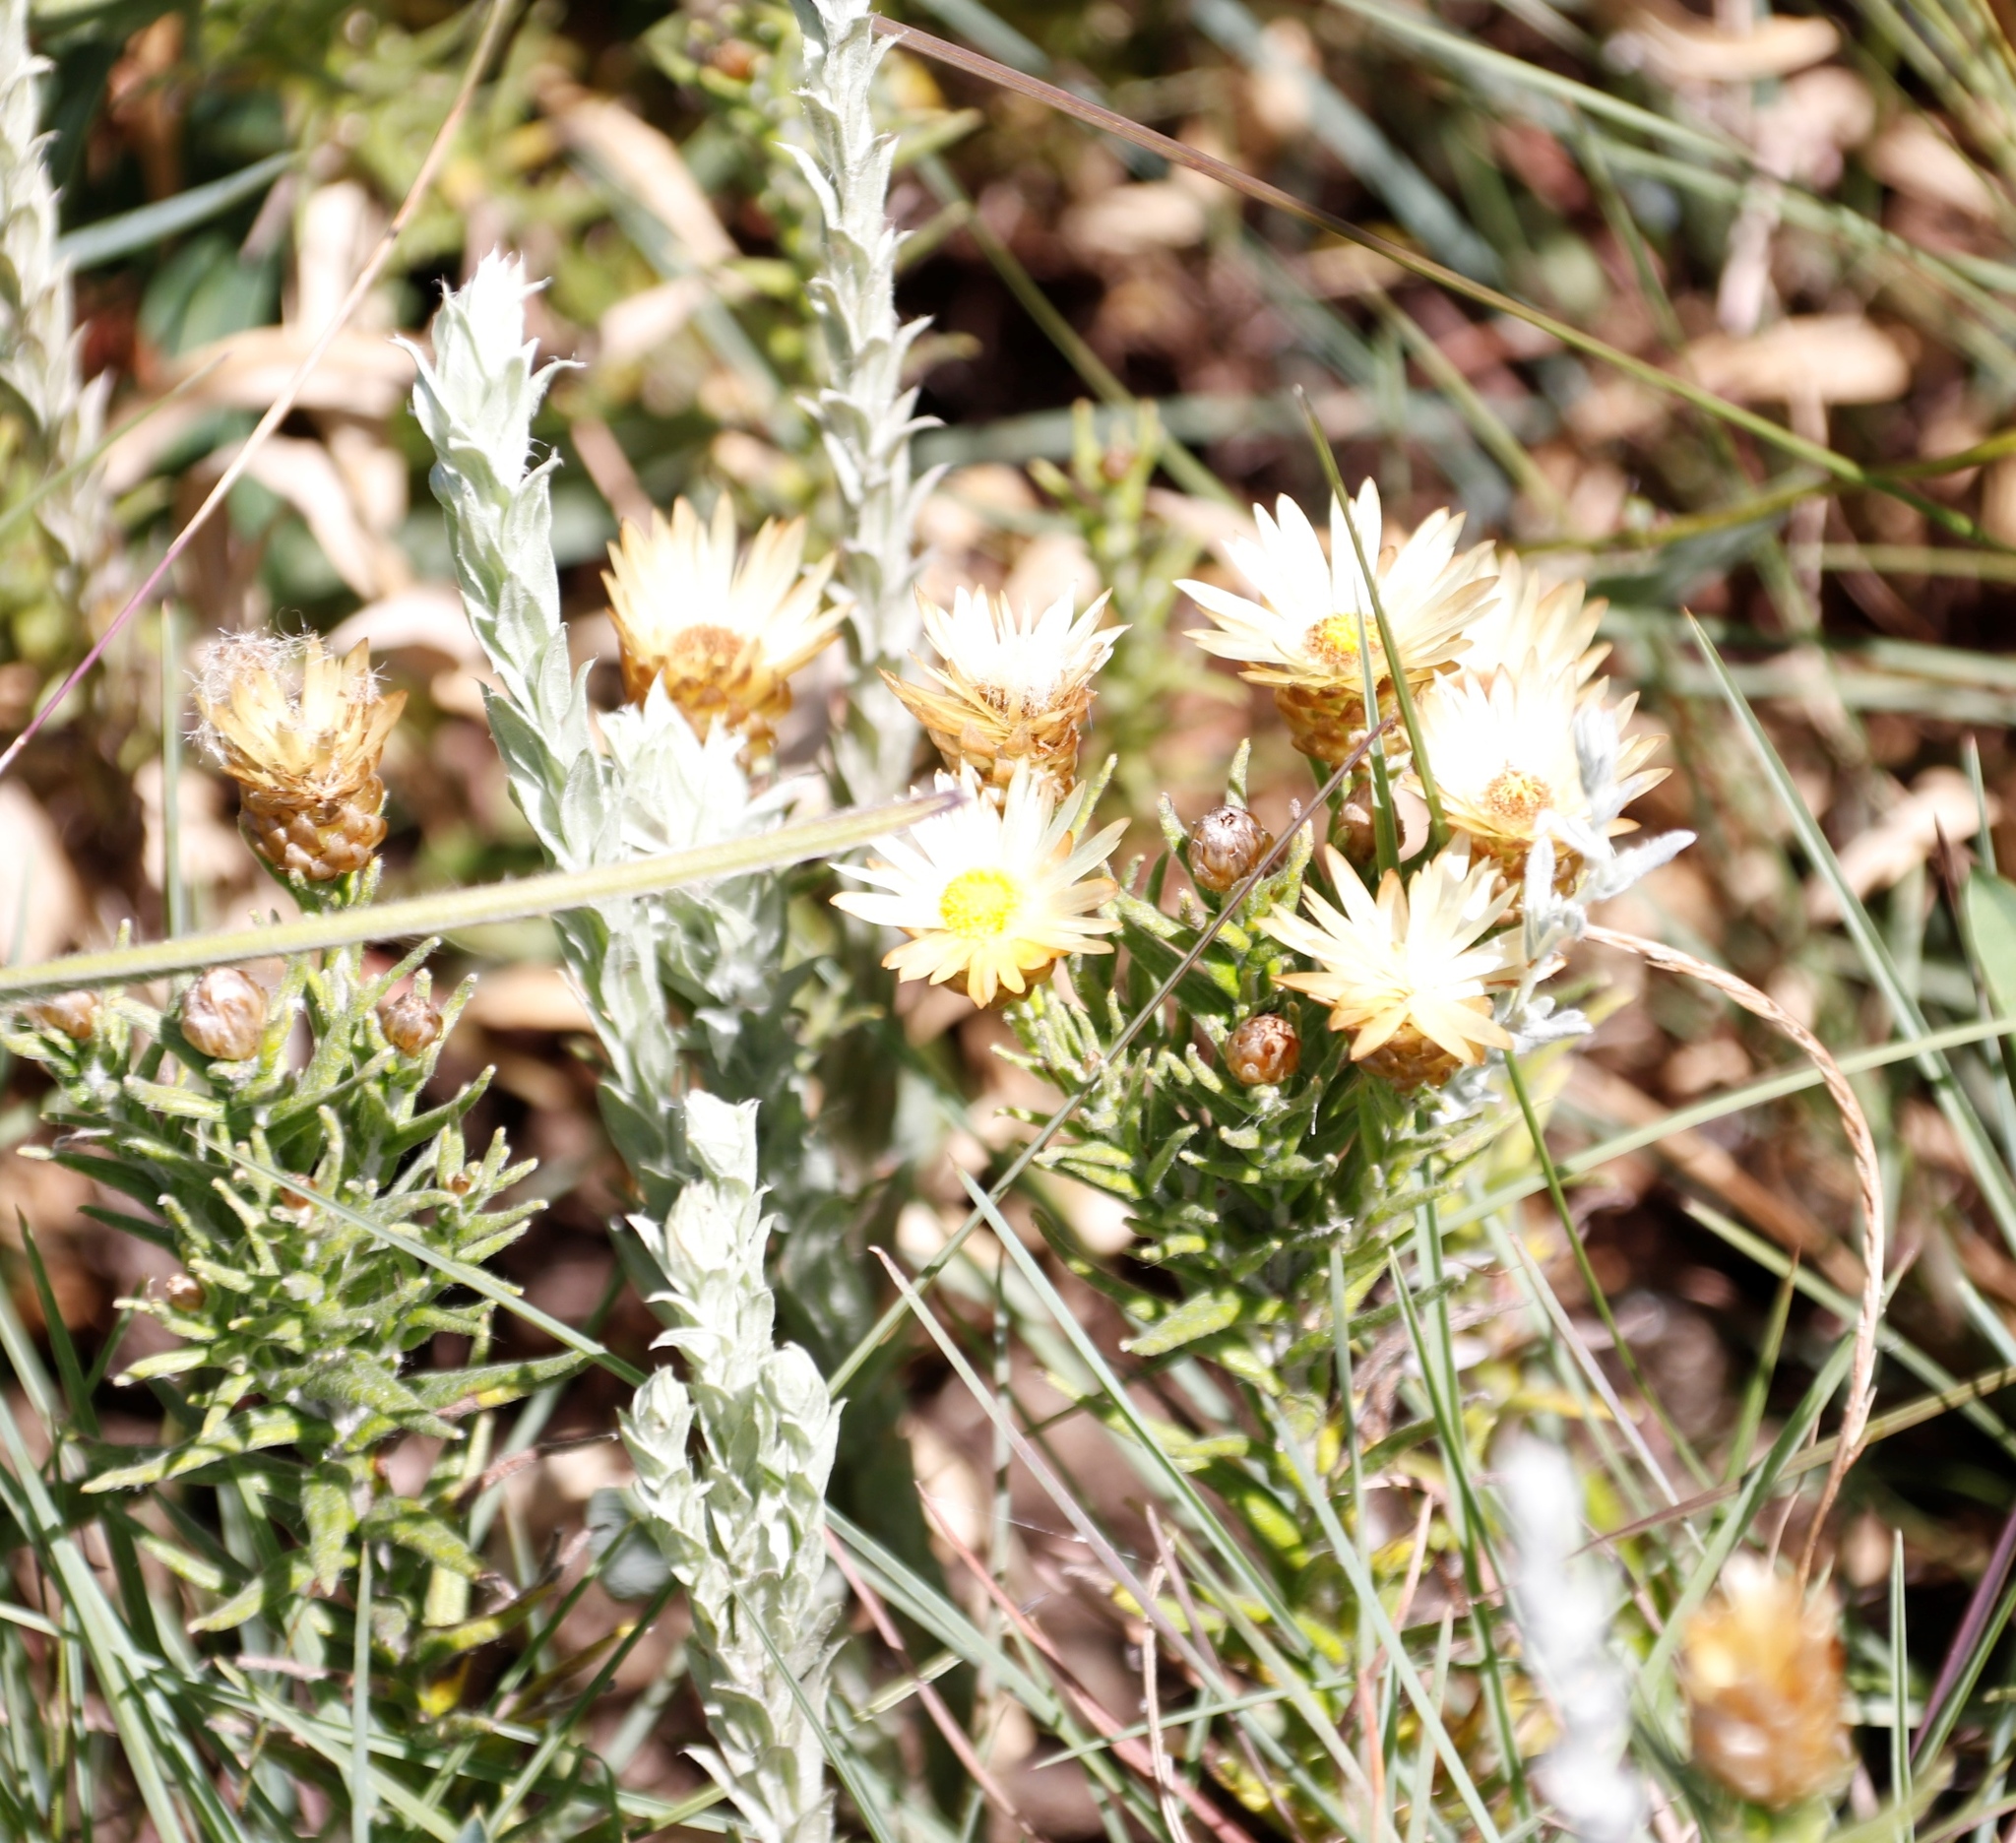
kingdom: Plantae
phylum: Tracheophyta
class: Magnoliopsida
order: Asterales
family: Asteraceae
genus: Helichrysum
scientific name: Helichrysum herbaceum
